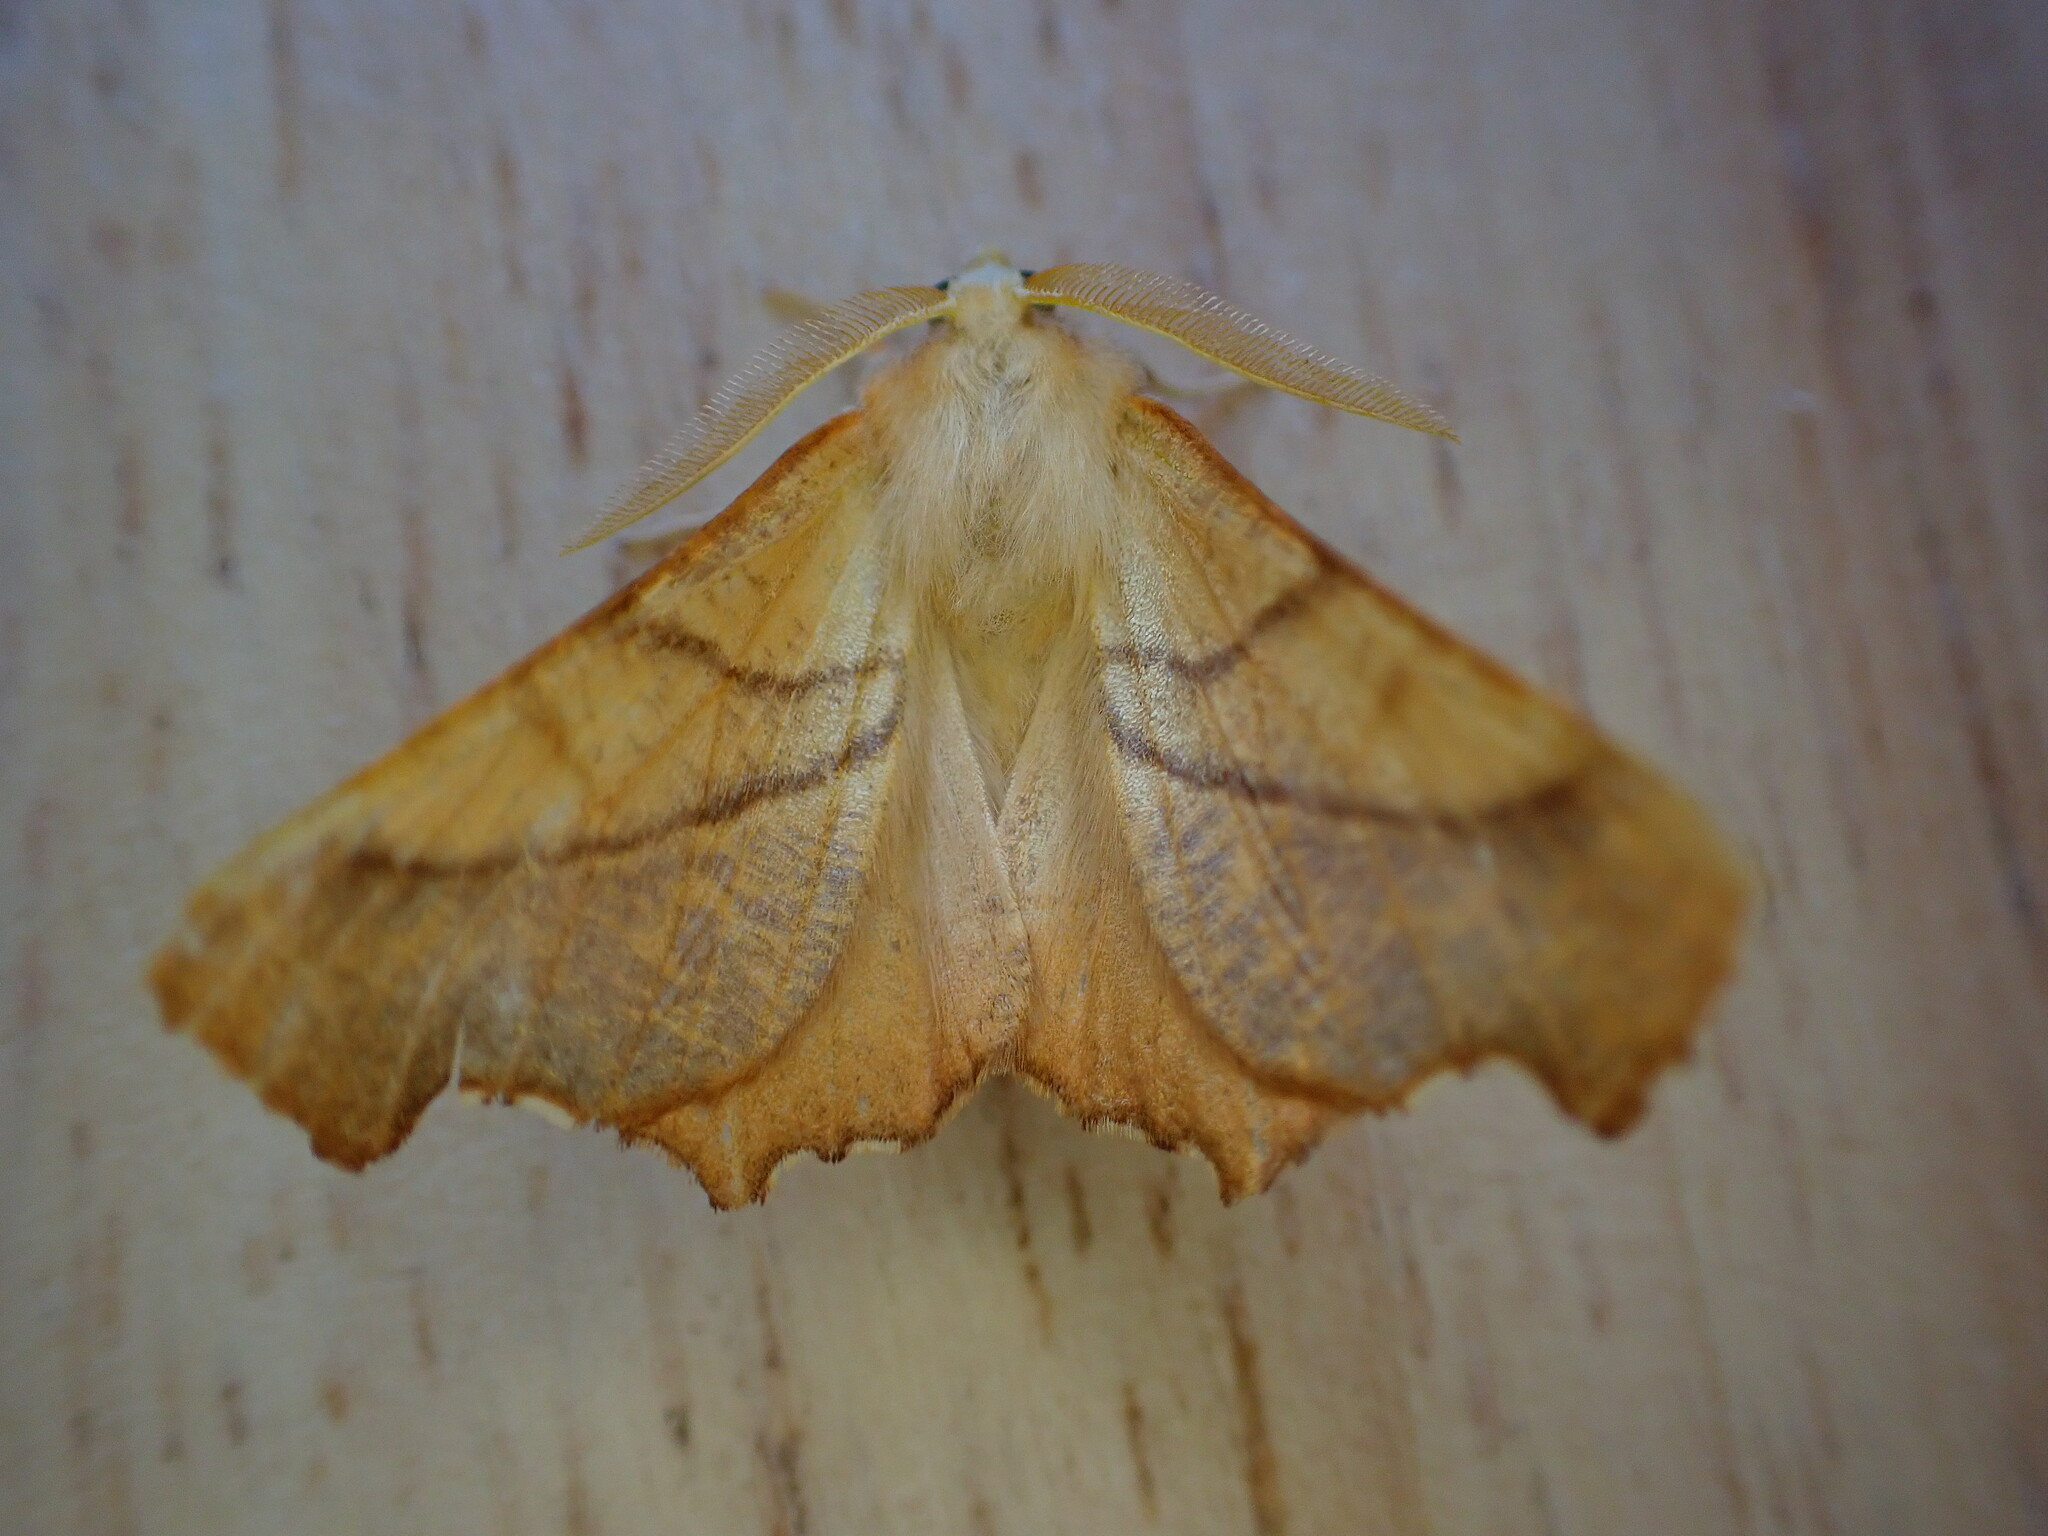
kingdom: Animalia
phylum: Arthropoda
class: Insecta
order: Lepidoptera
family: Geometridae
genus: Ennomos
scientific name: Ennomos fuscantaria
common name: Dusky thorn
